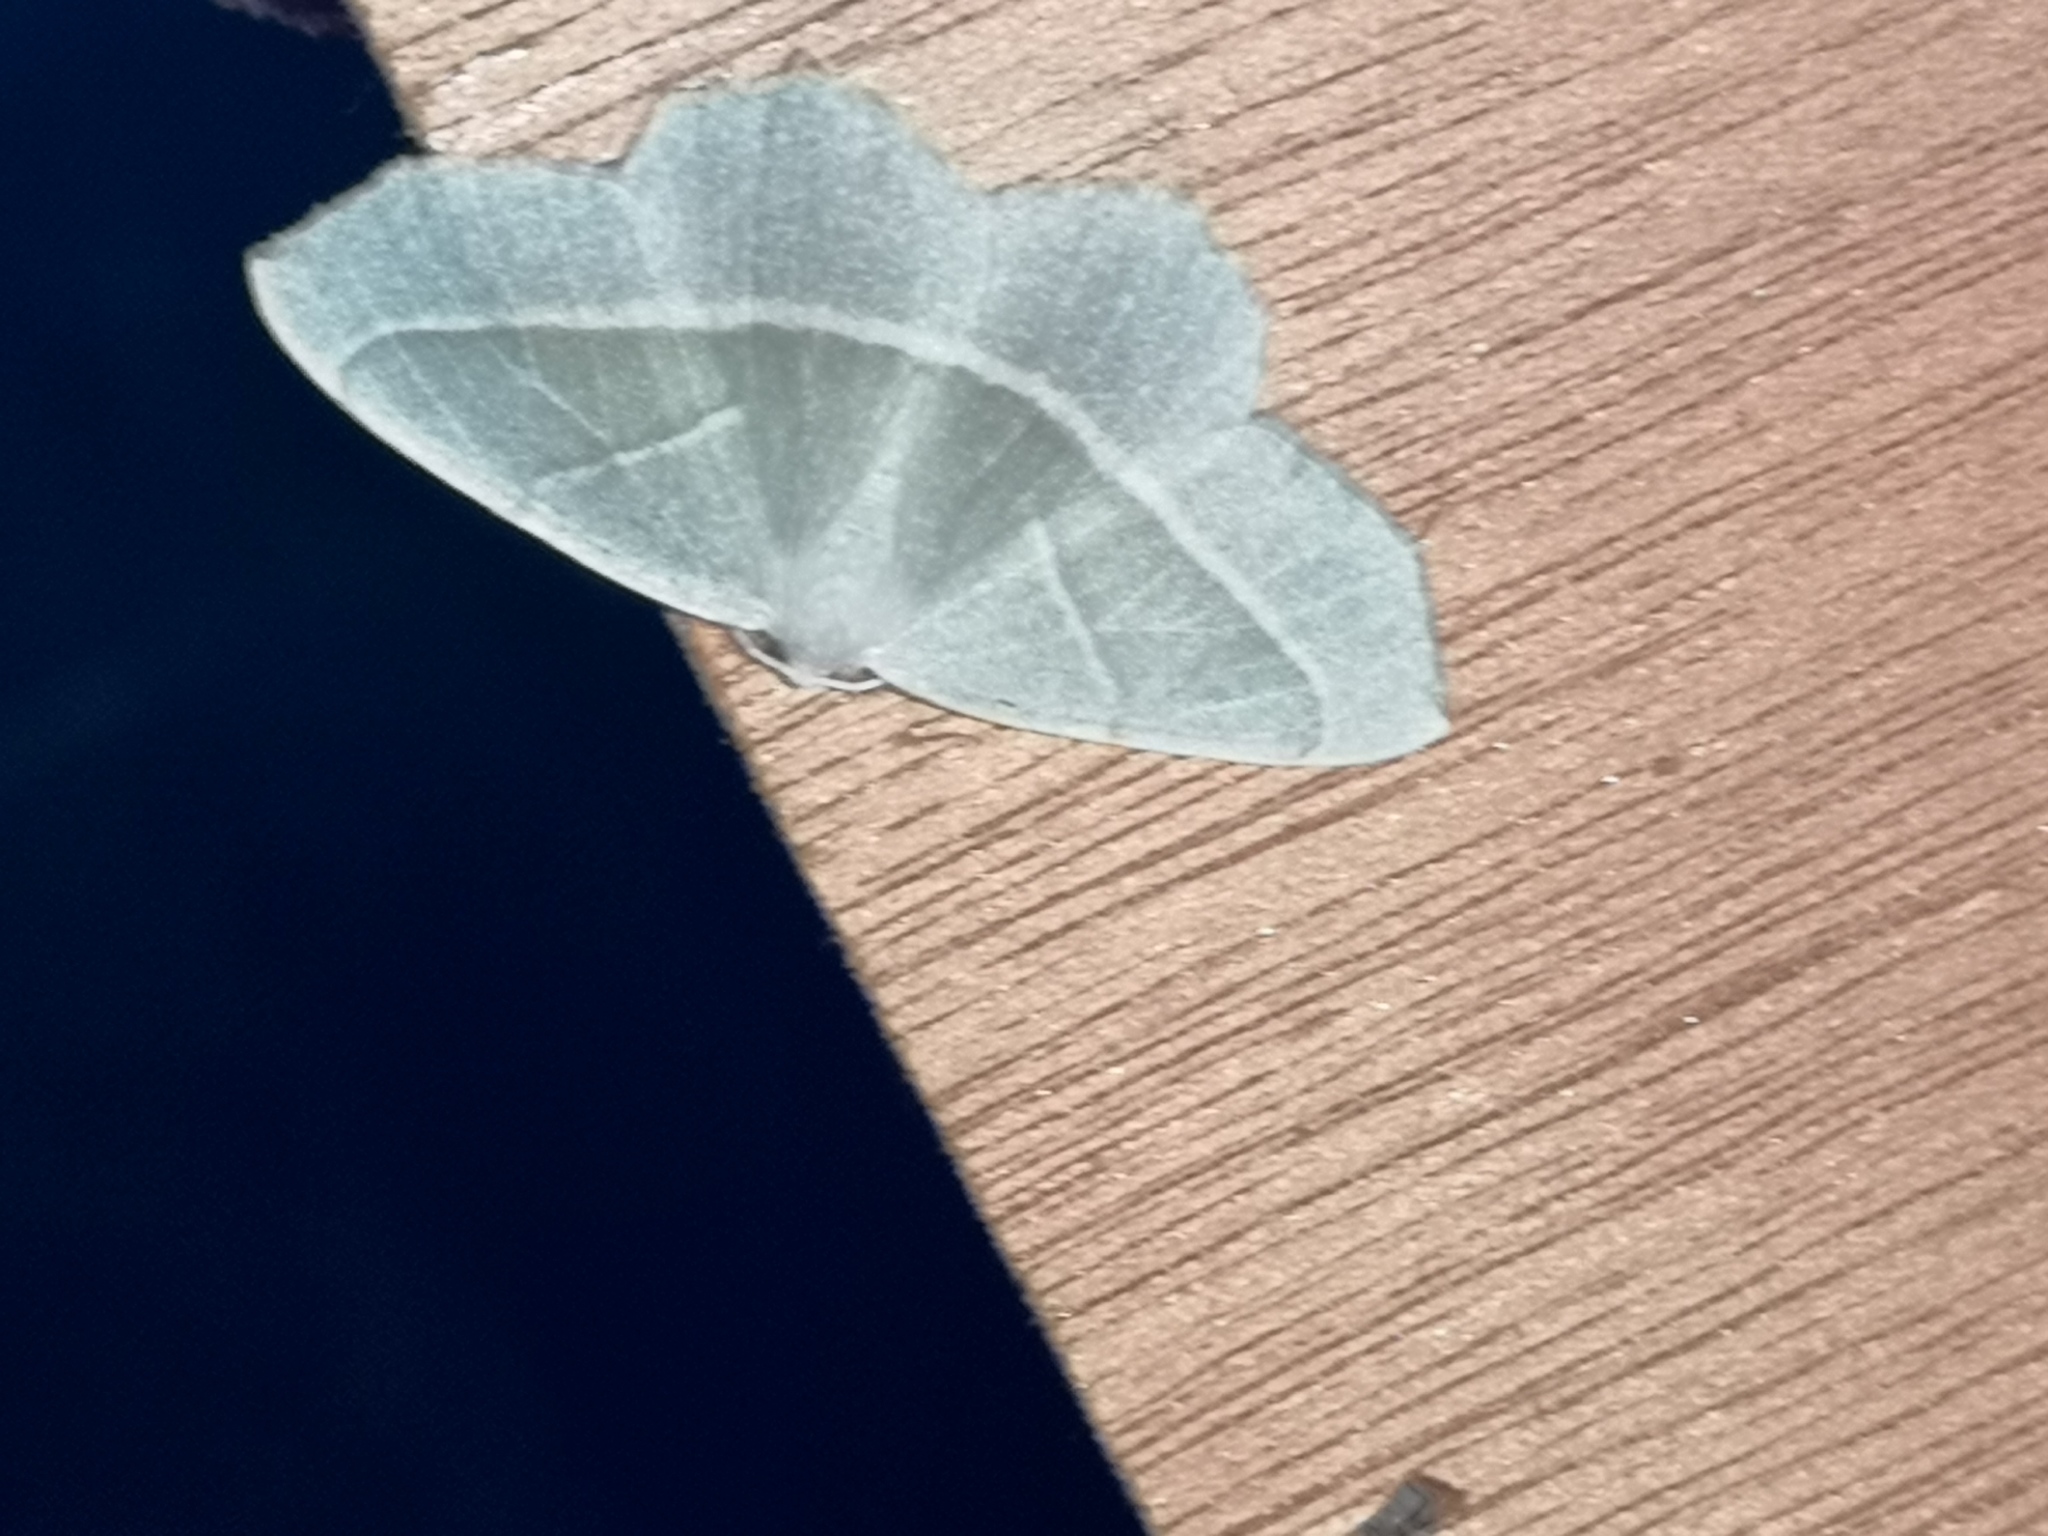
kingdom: Animalia
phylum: Arthropoda
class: Insecta
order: Lepidoptera
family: Geometridae
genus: Campaea
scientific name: Campaea margaritaria
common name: Light emerald
